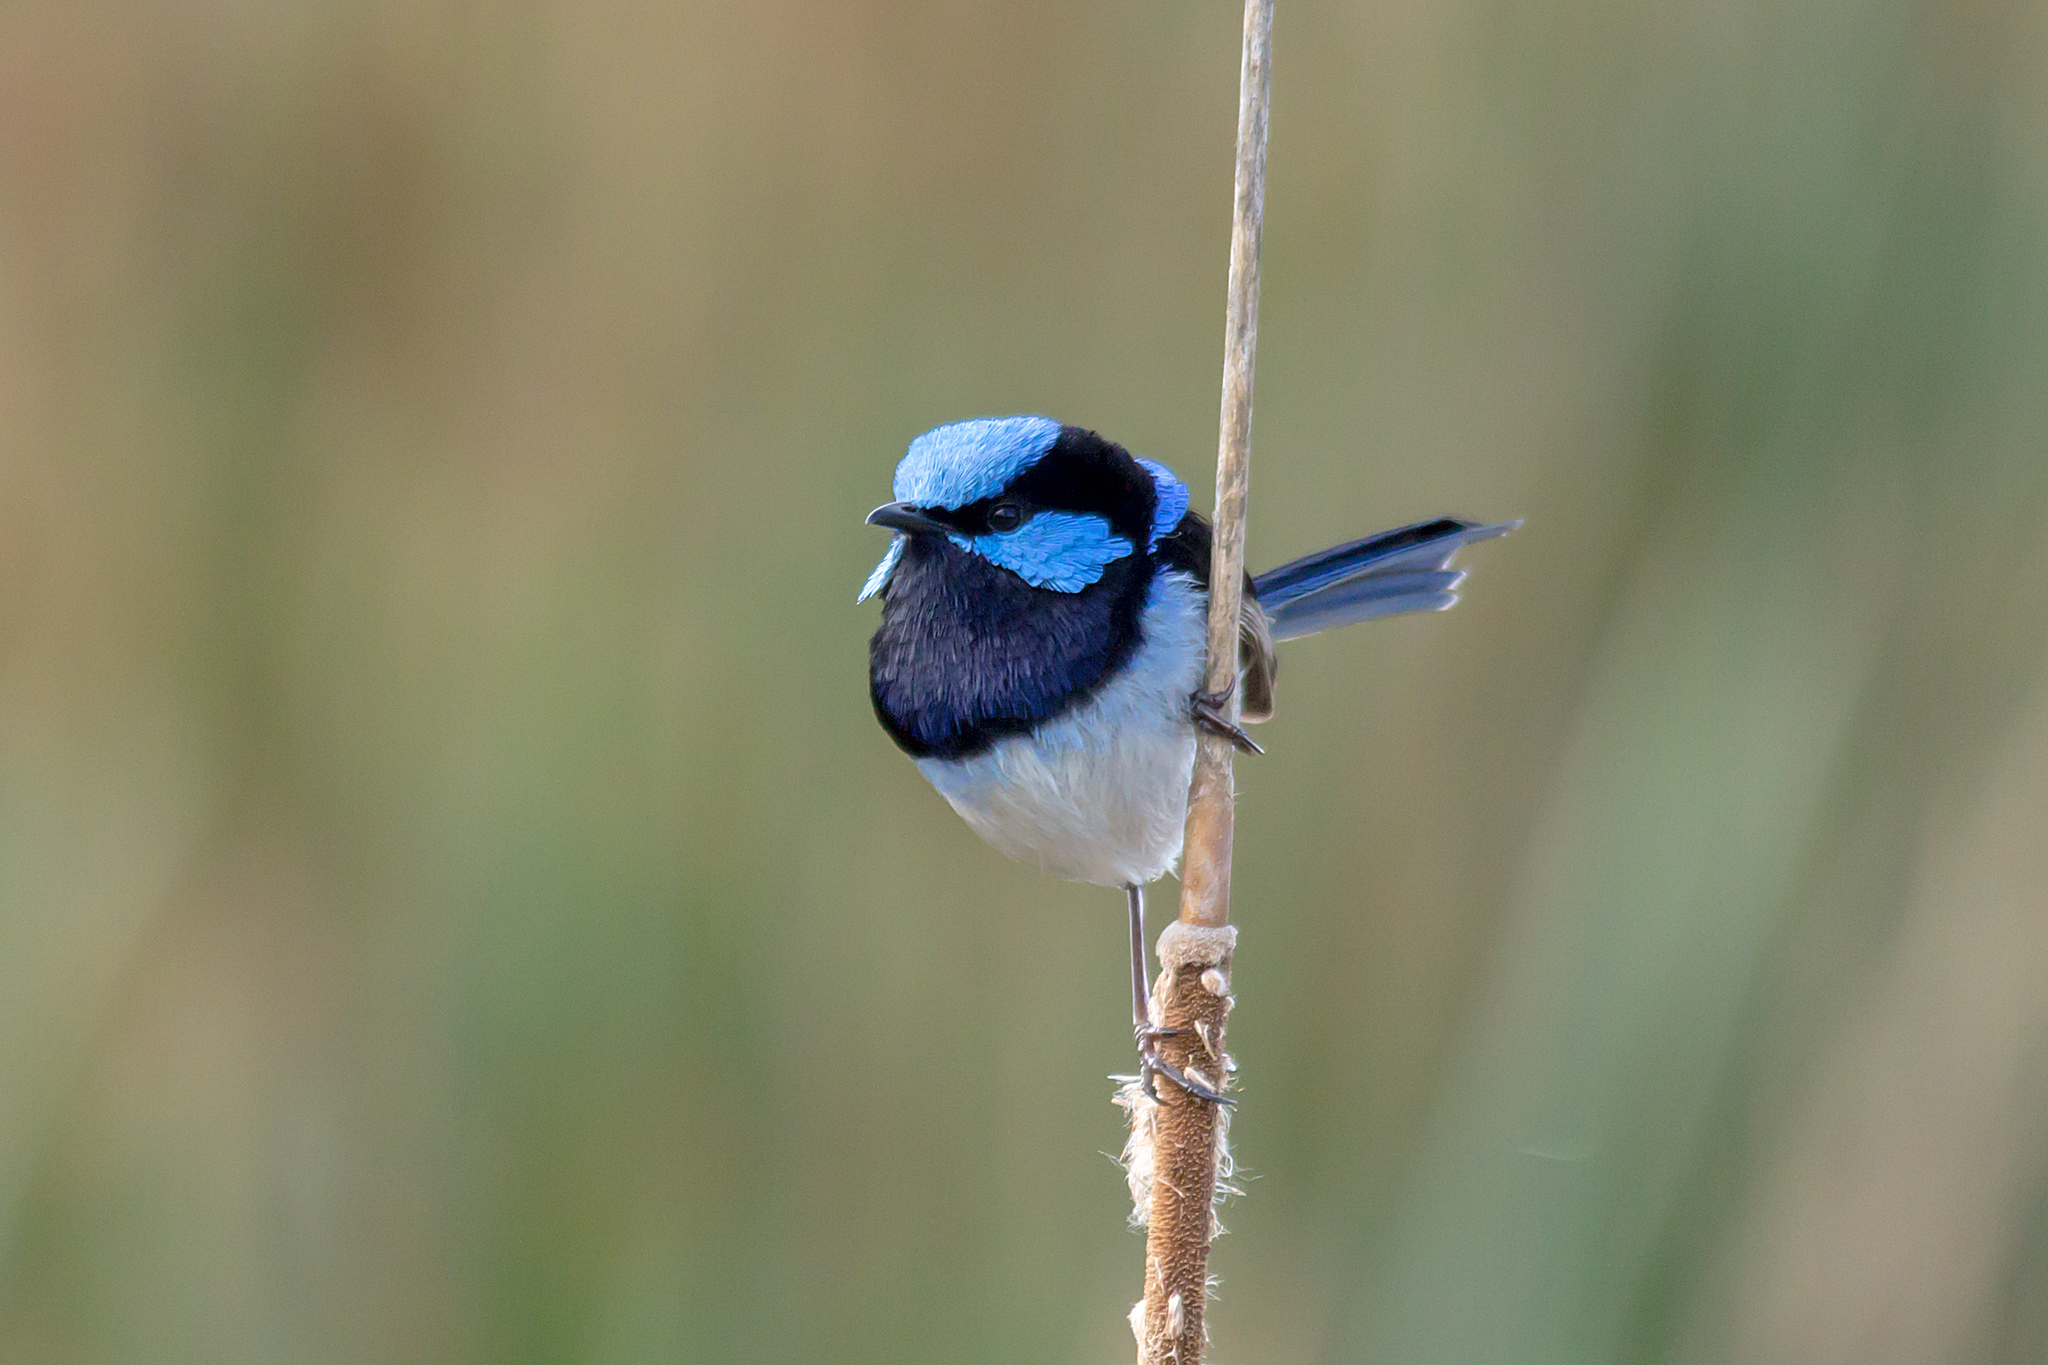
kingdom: Animalia
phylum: Chordata
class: Aves
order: Passeriformes
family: Maluridae
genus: Malurus
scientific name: Malurus cyaneus
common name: Superb fairywren
